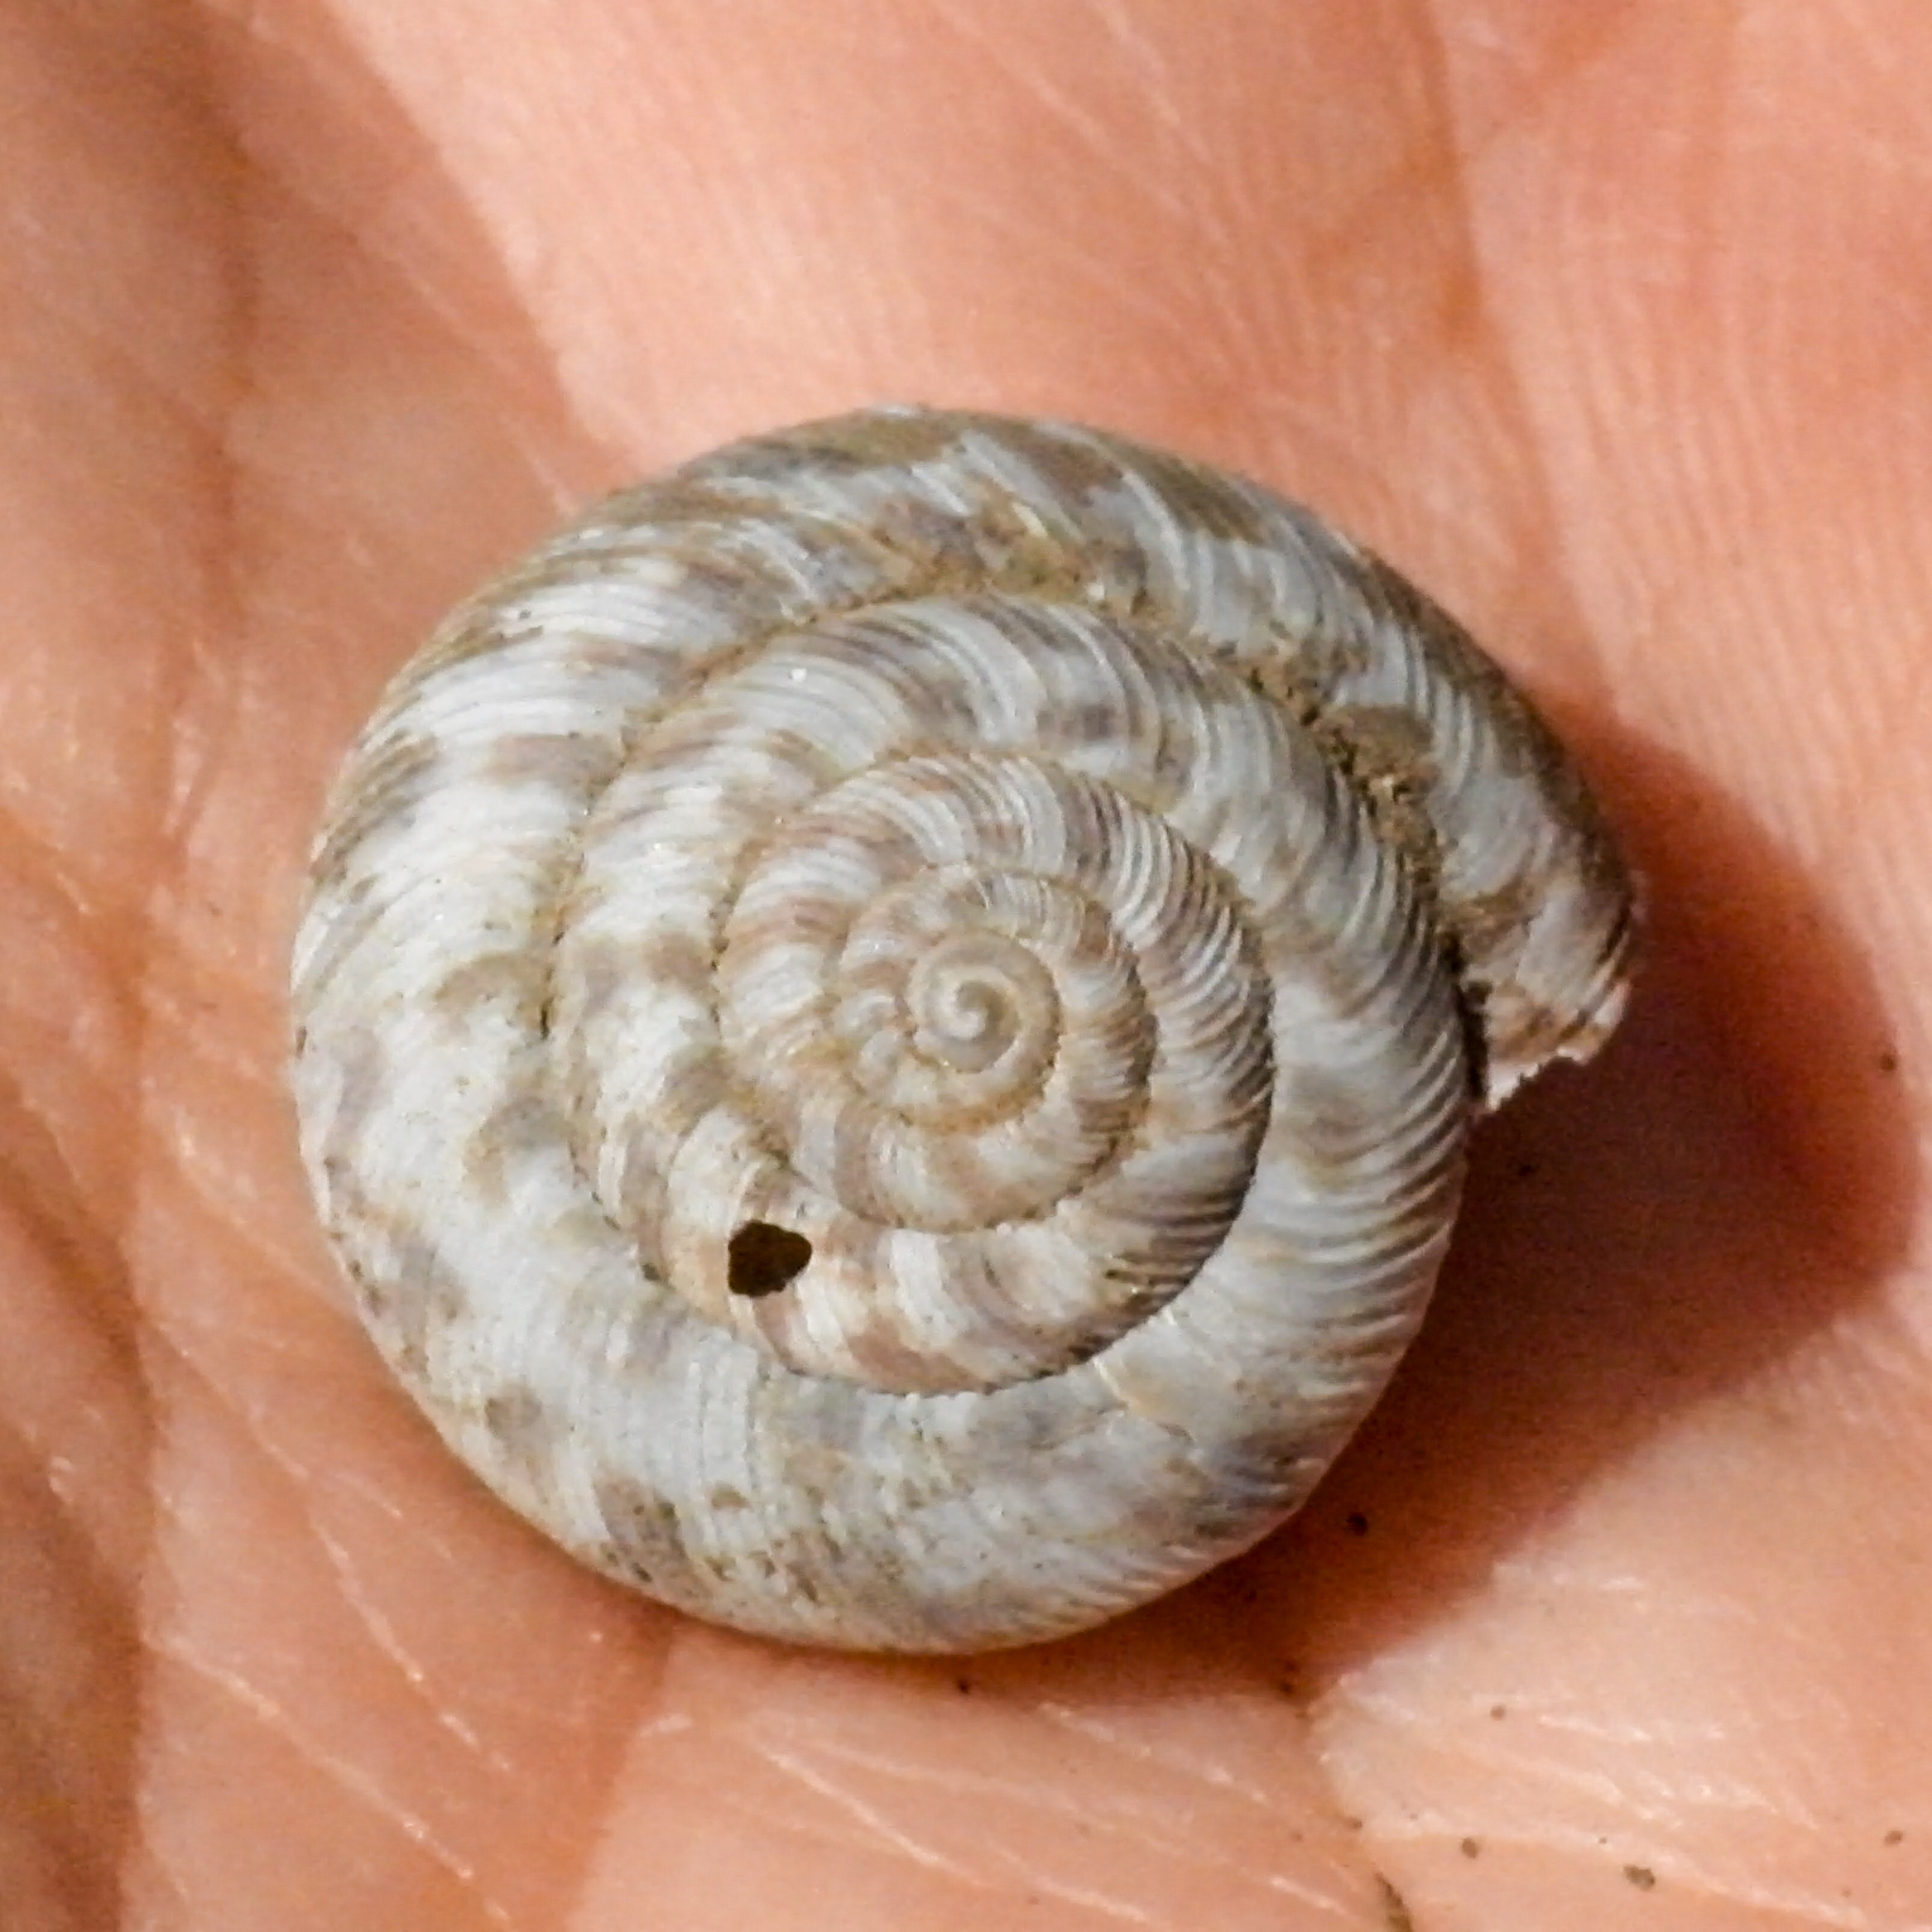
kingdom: Animalia
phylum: Mollusca
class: Gastropoda
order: Stylommatophora
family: Discidae
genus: Anguispira
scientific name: Anguispira alternata
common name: Flamed tigersnail
